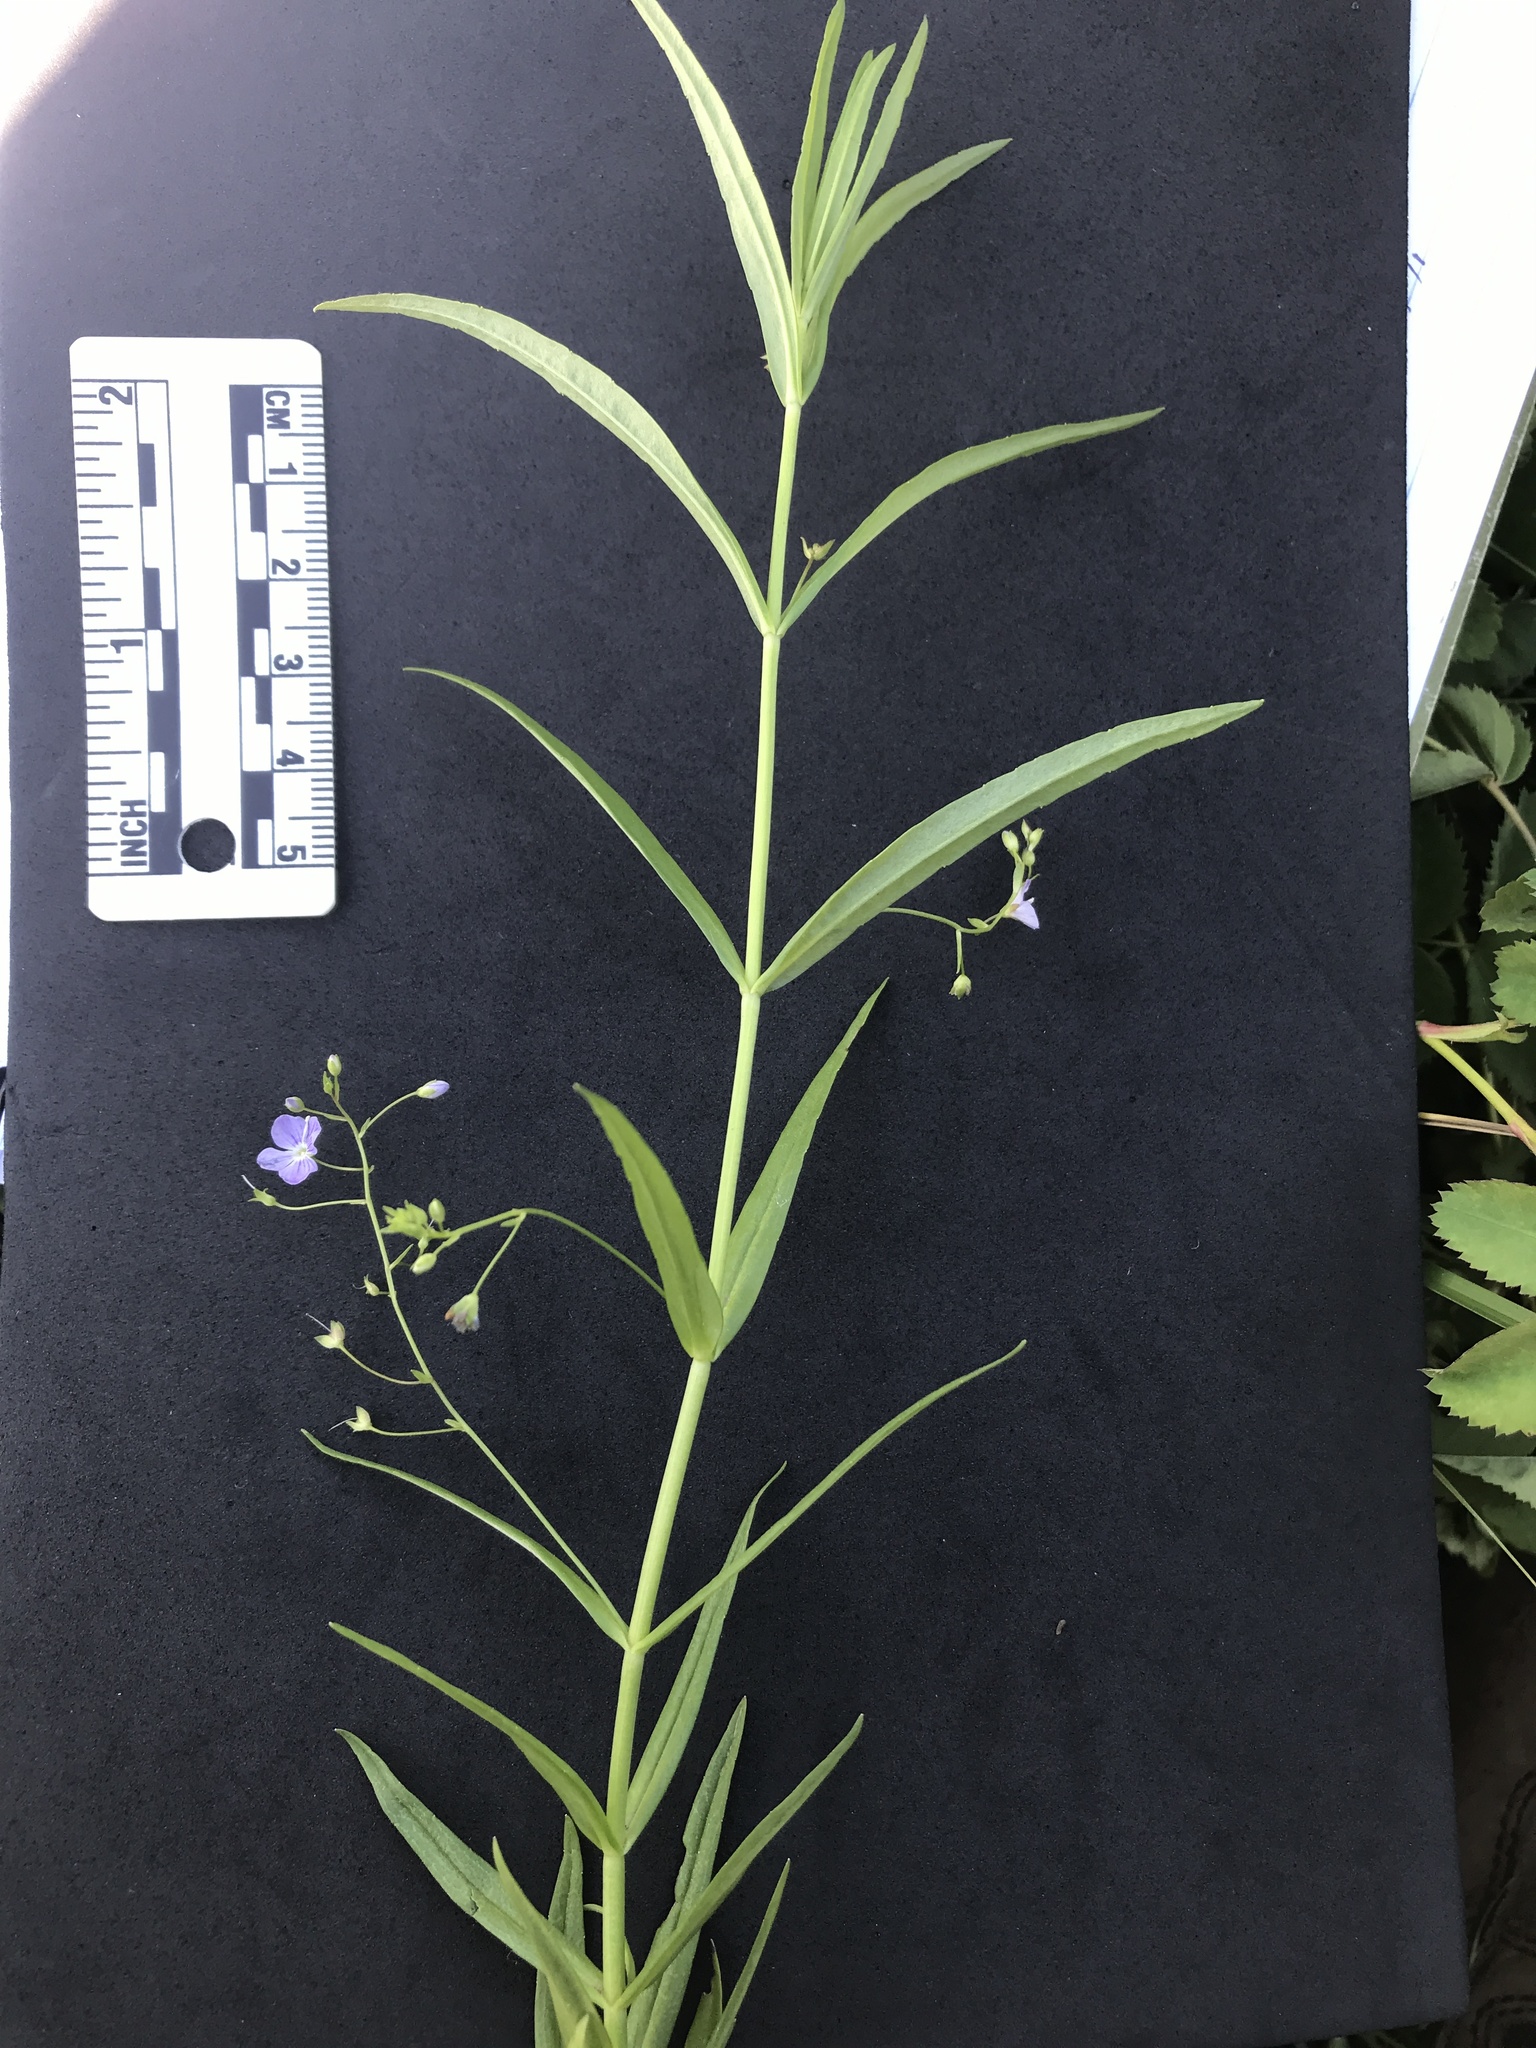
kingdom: Plantae
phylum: Tracheophyta
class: Magnoliopsida
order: Lamiales
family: Plantaginaceae
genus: Veronica
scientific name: Veronica scutellata
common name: Marsh speedwell
